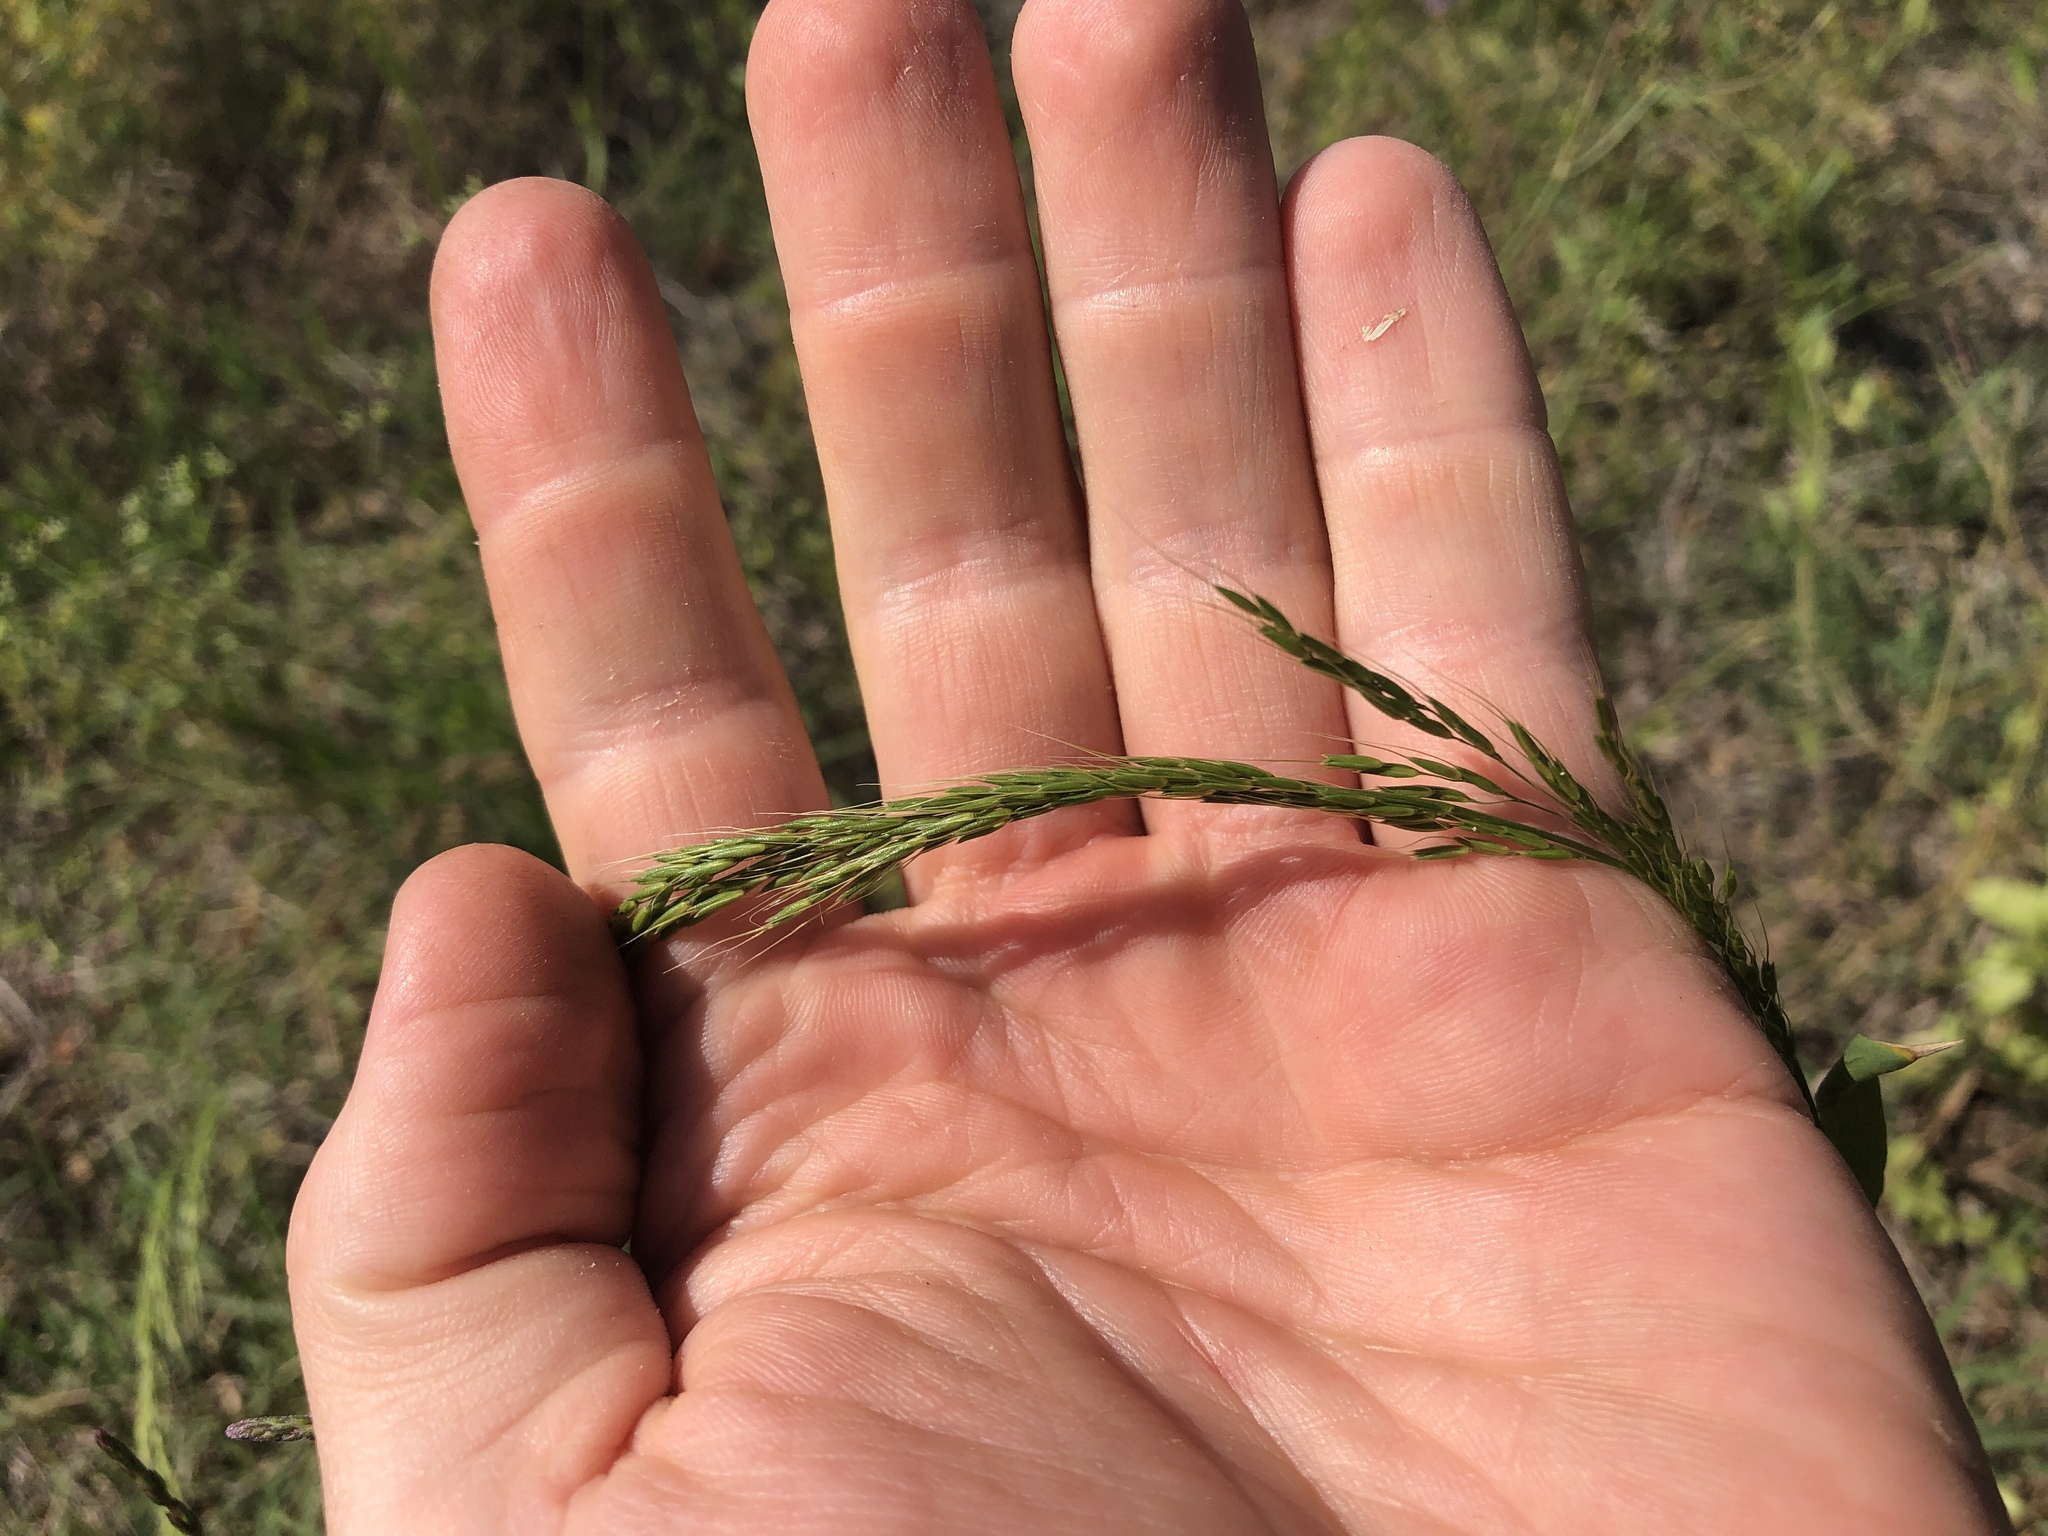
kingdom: Plantae
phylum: Tracheophyta
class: Liliopsida
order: Poales
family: Poaceae
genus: Limnodea
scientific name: Limnodea arkansana
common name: Ozark-grass
